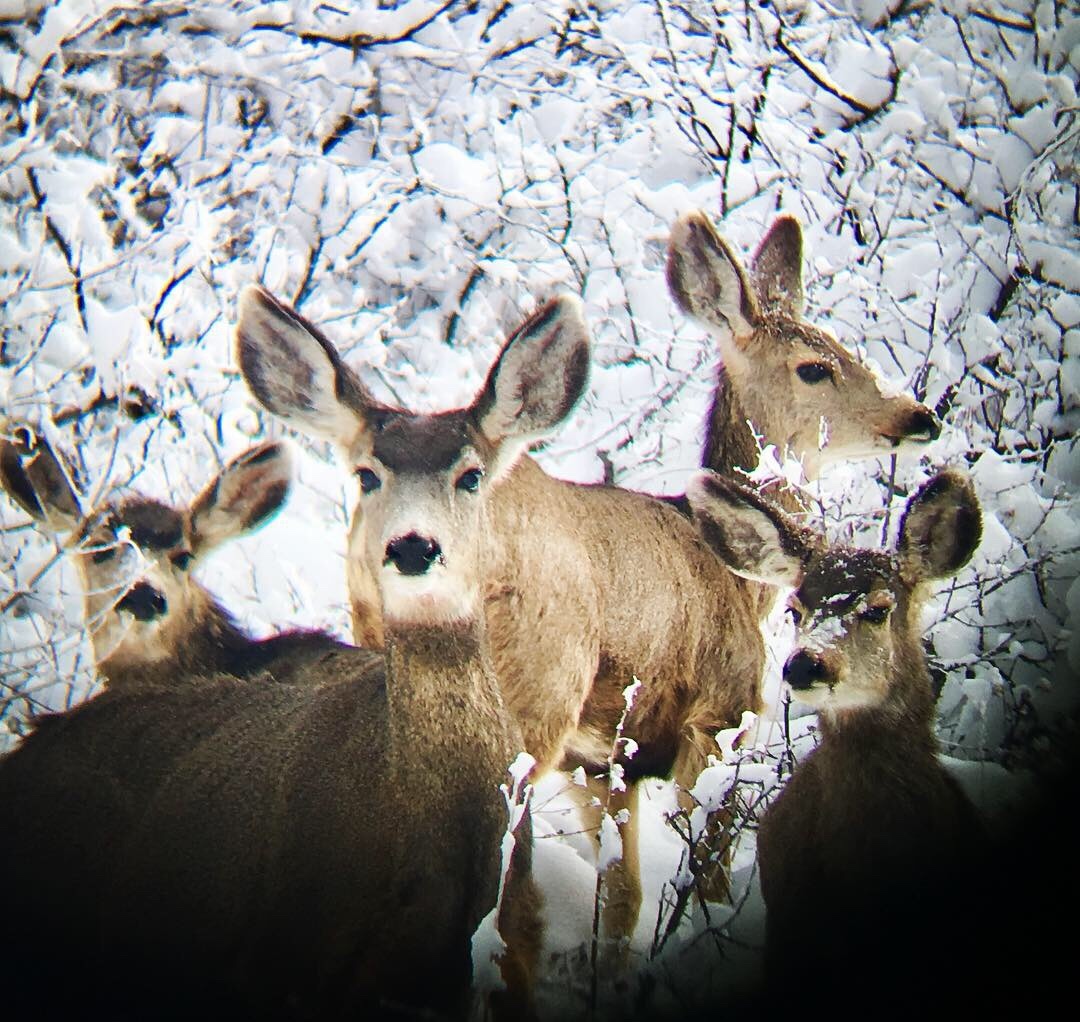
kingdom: Animalia
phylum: Chordata
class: Mammalia
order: Artiodactyla
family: Cervidae
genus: Odocoileus
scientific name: Odocoileus hemionus
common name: Mule deer
